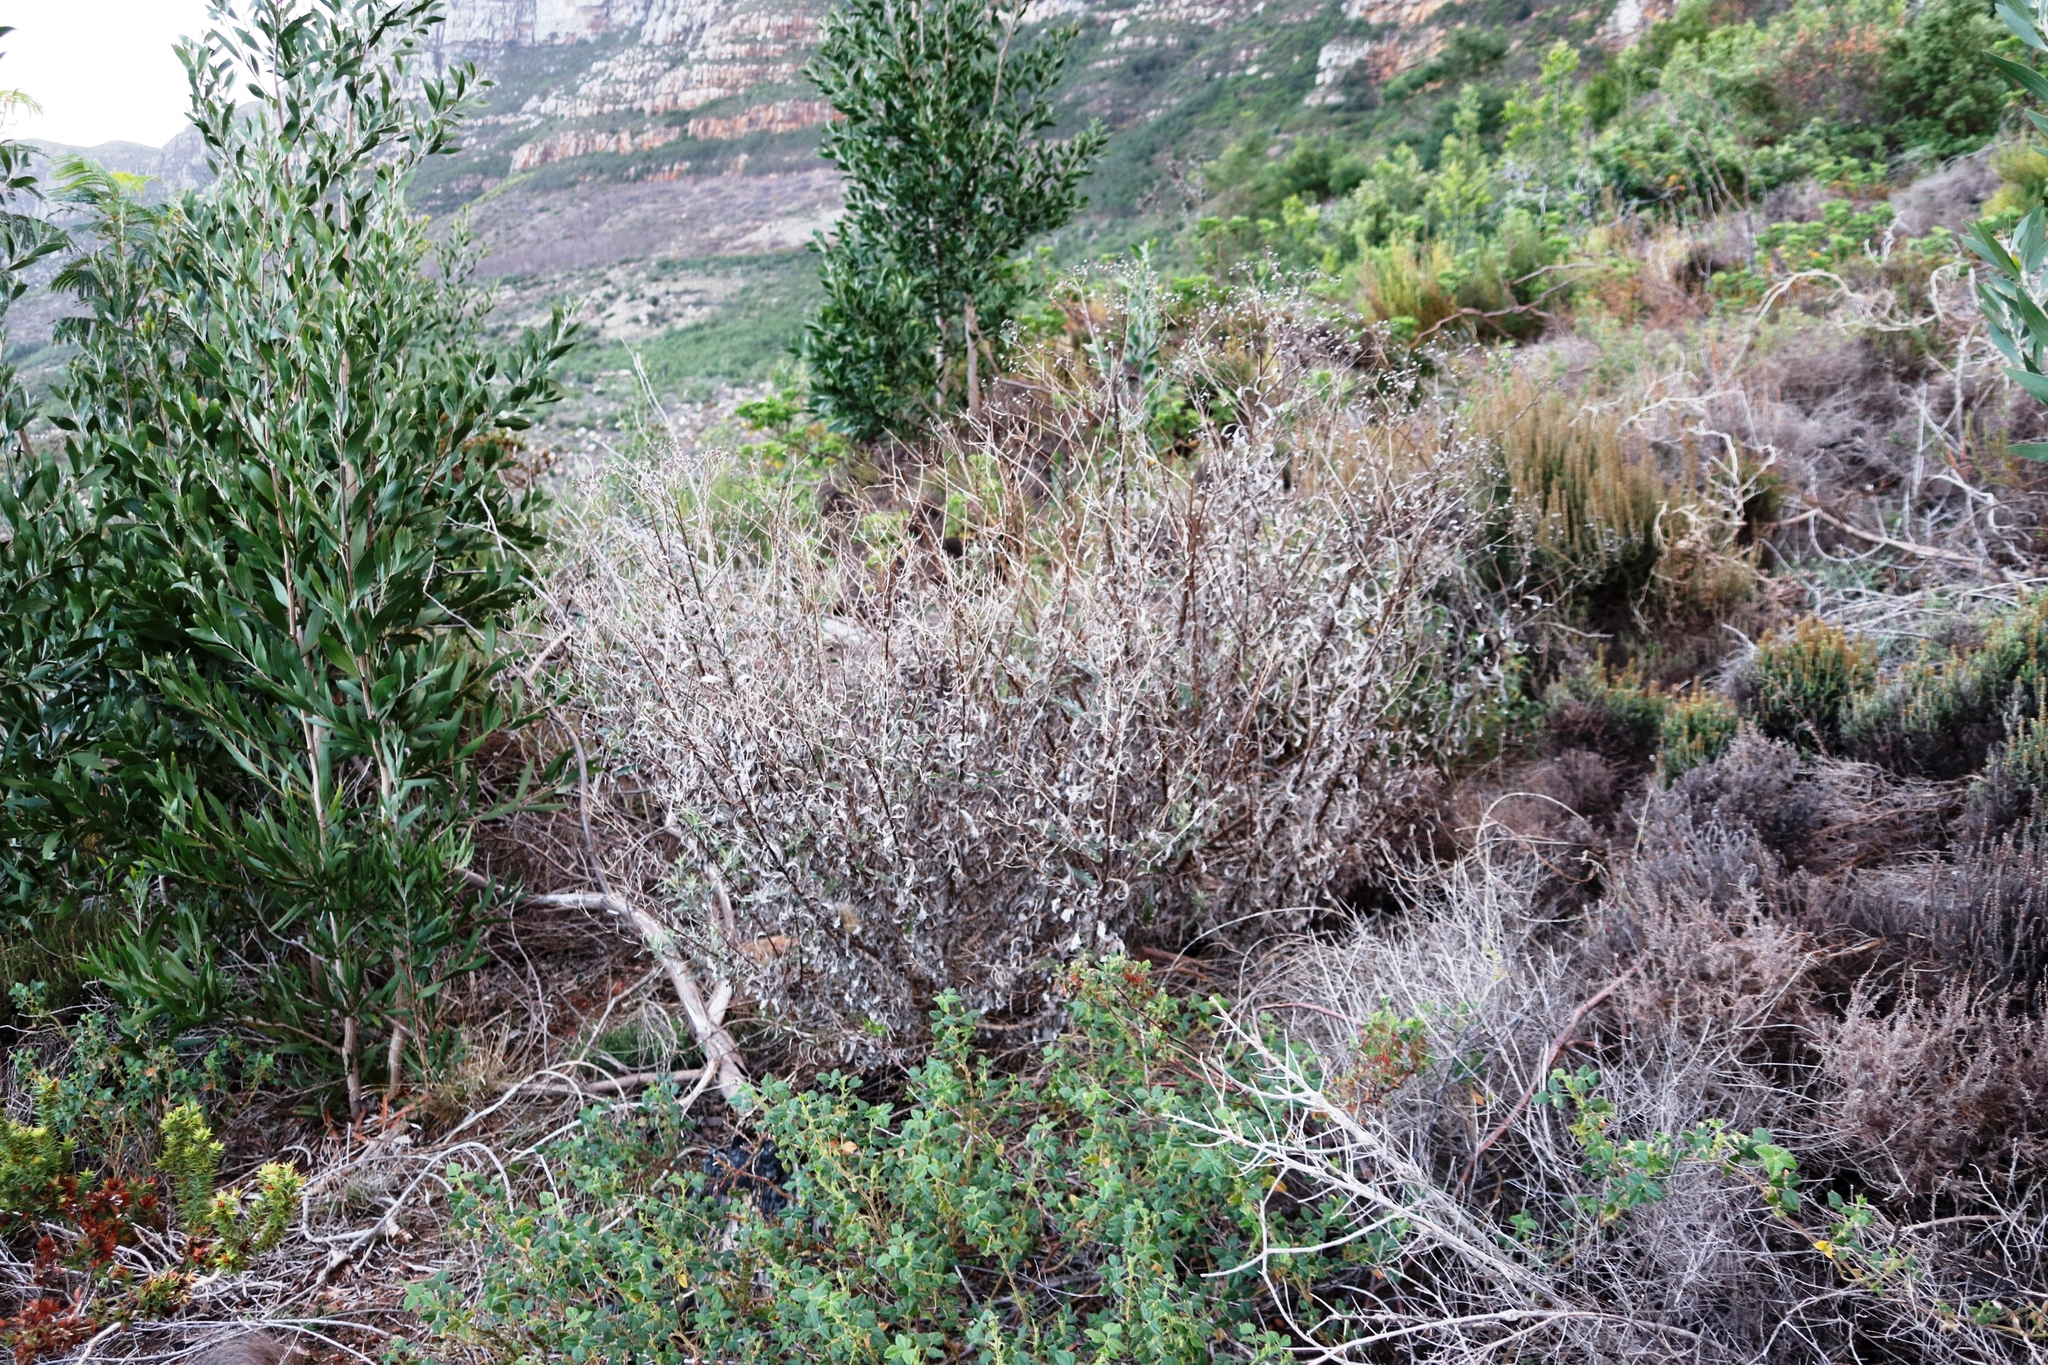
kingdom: Plantae
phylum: Tracheophyta
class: Magnoliopsida
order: Asterales
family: Asteraceae
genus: Senecio
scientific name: Senecio pterophorus
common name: Shoddy ragwort
